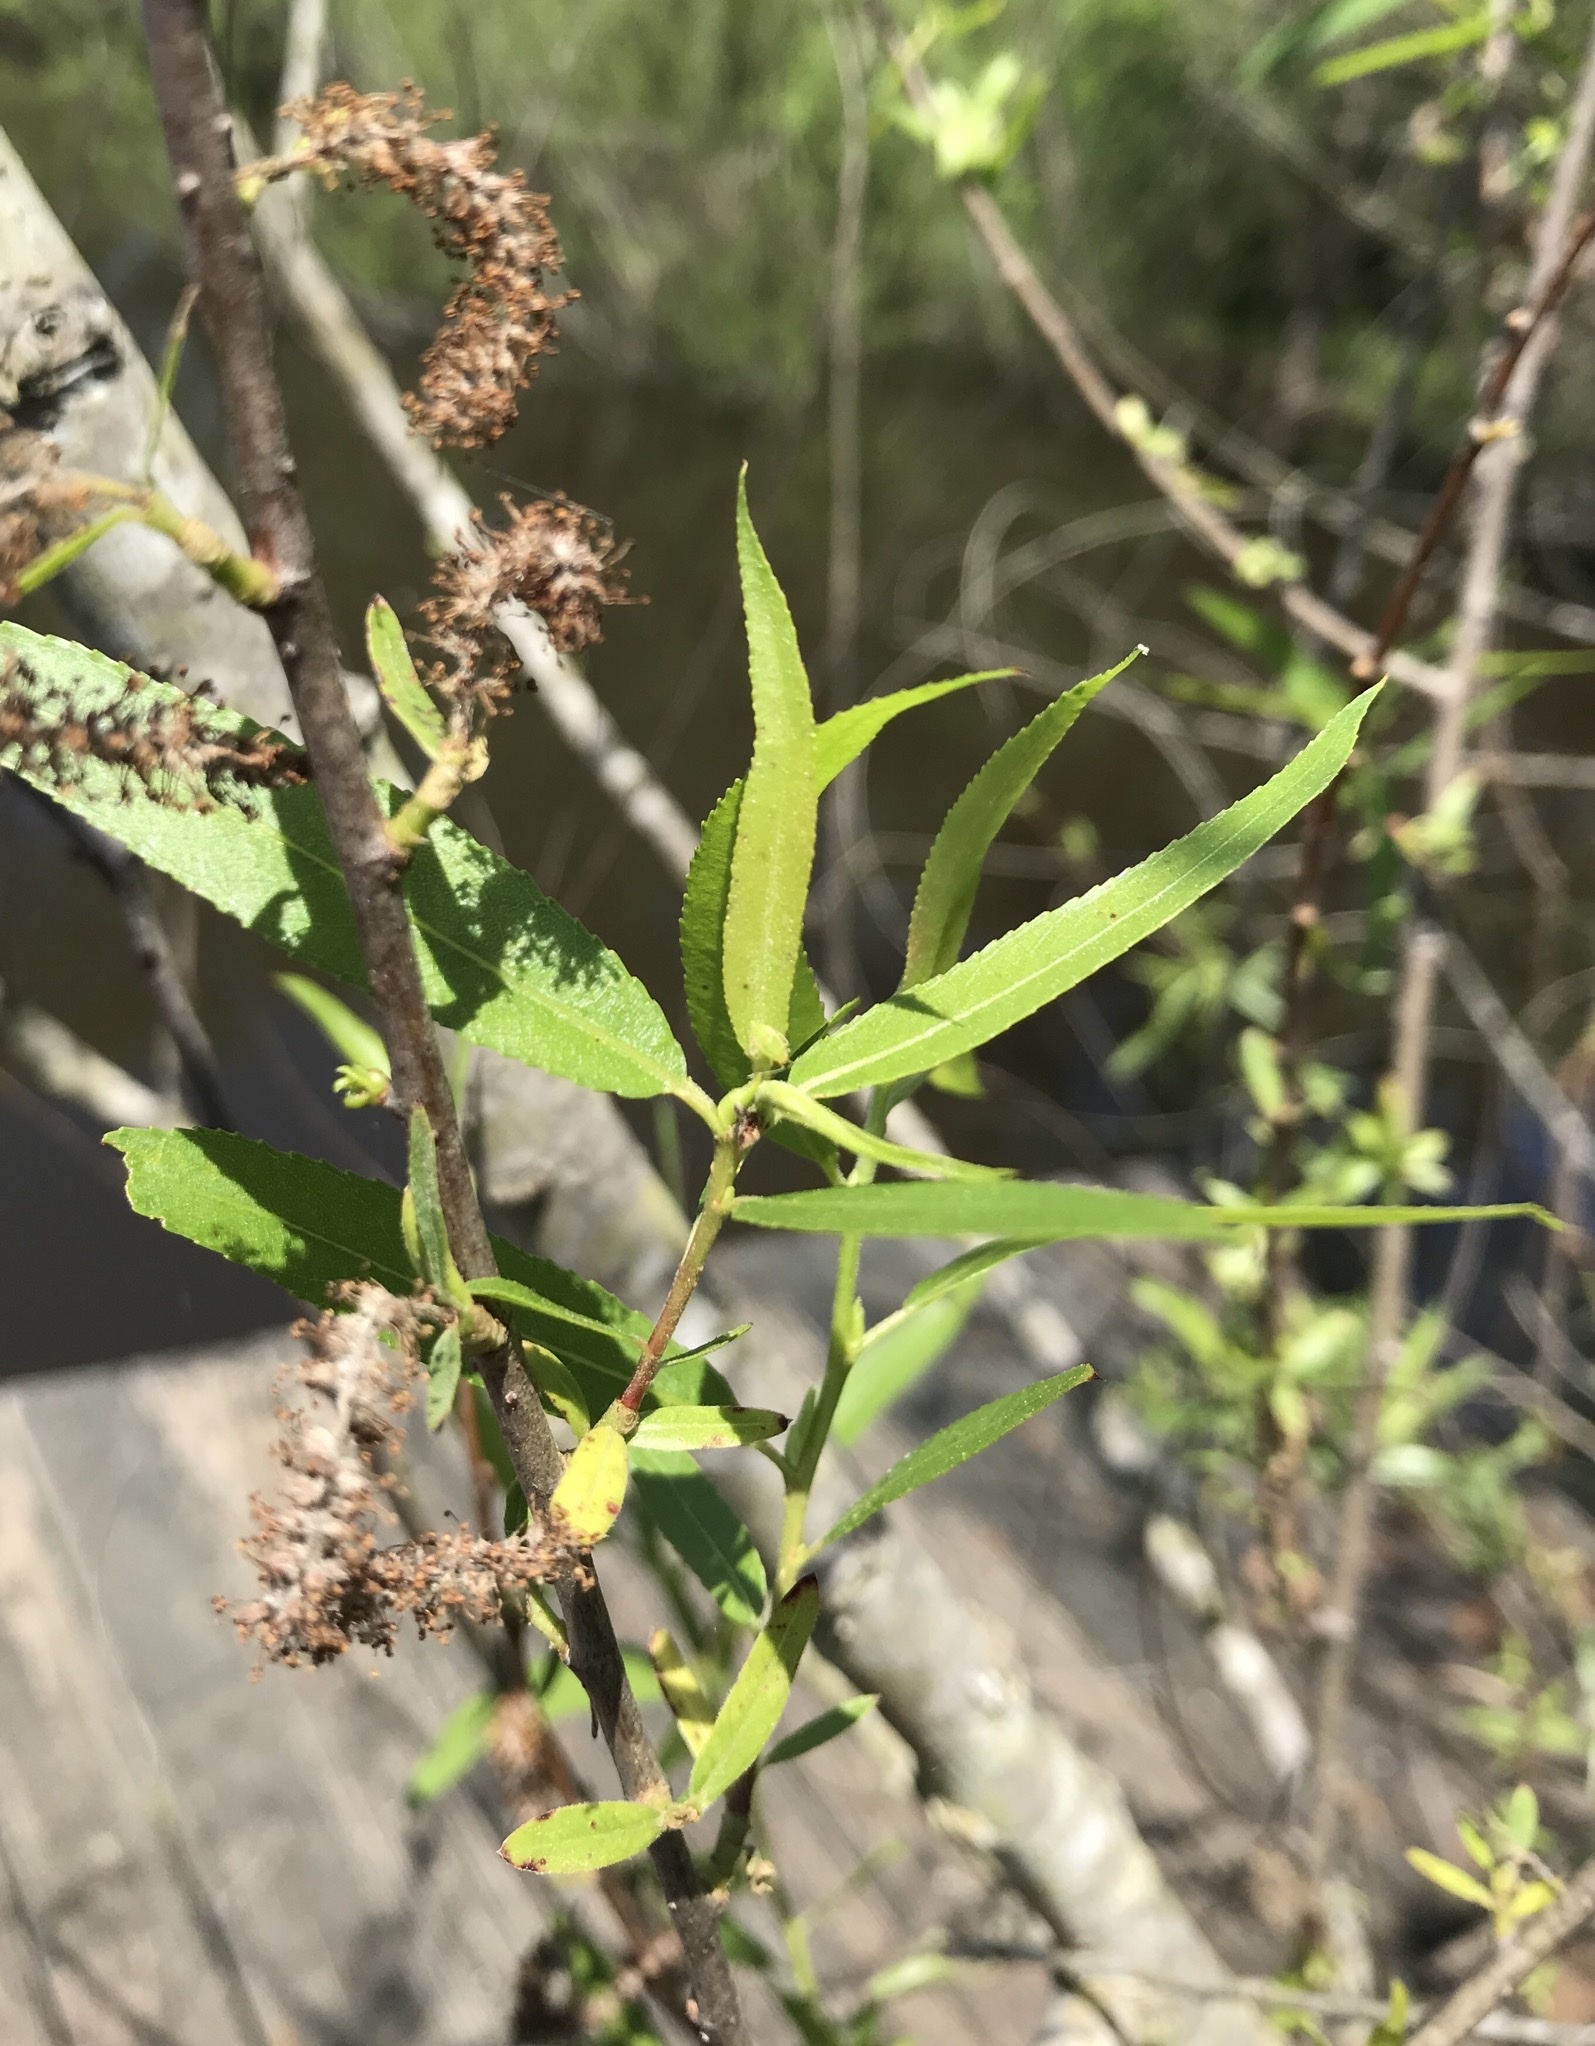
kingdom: Plantae
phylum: Tracheophyta
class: Magnoliopsida
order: Malpighiales
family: Salicaceae
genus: Salix
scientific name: Salix nigra
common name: Black willow
